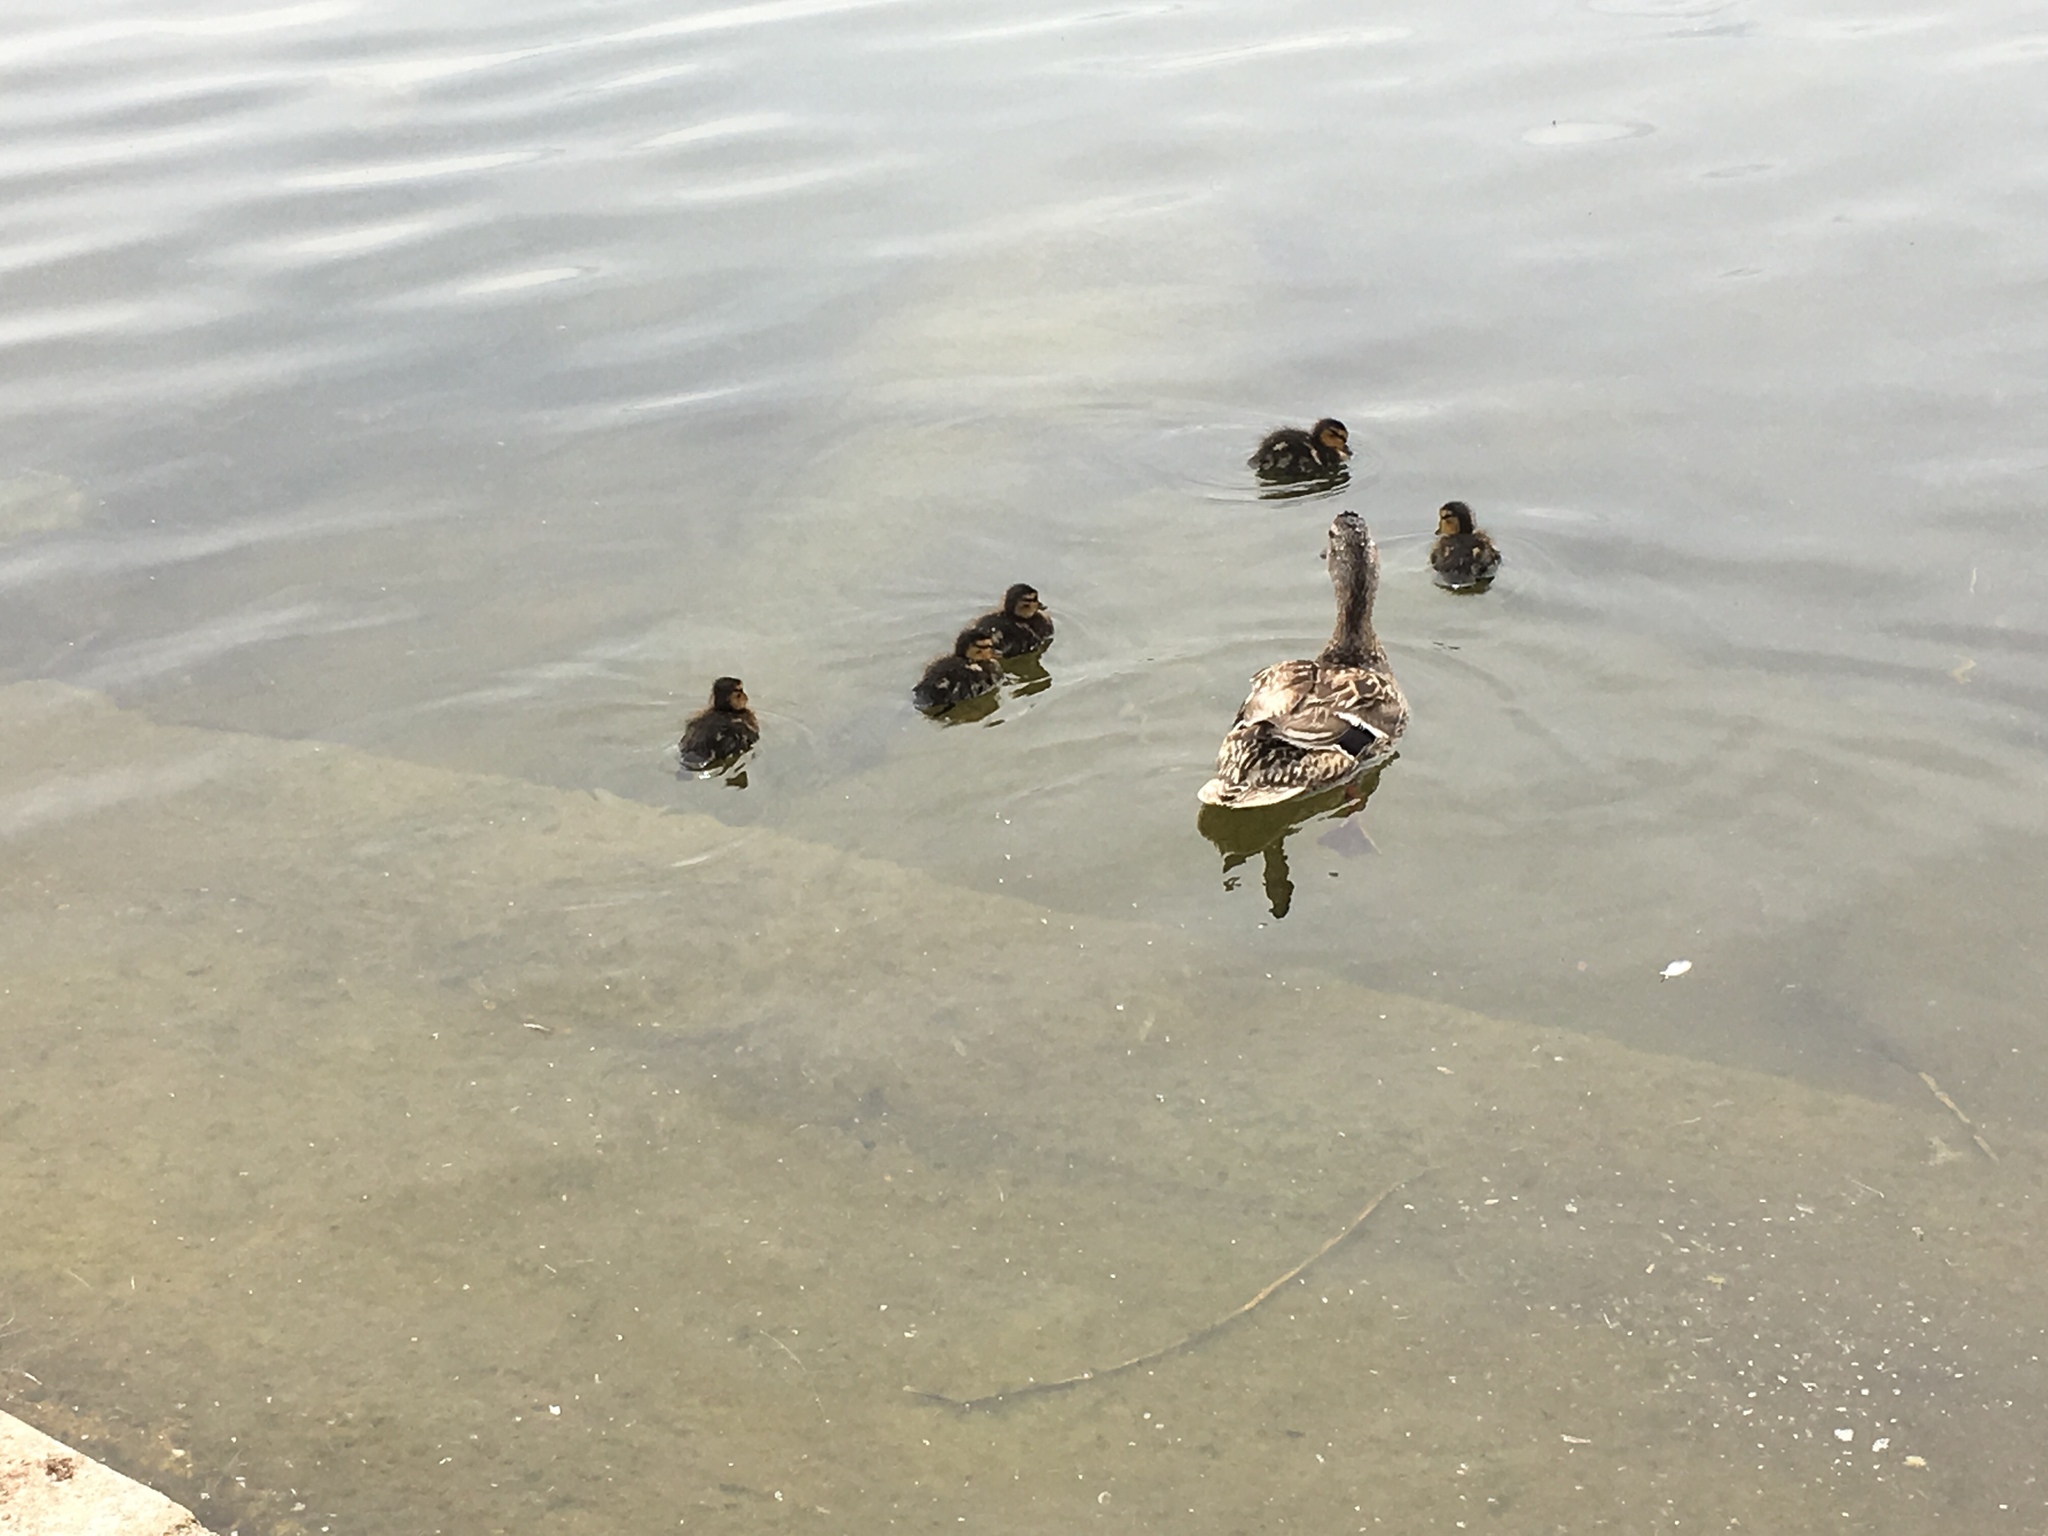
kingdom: Animalia
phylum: Chordata
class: Aves
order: Anseriformes
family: Anatidae
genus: Anas
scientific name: Anas platyrhynchos
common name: Mallard
